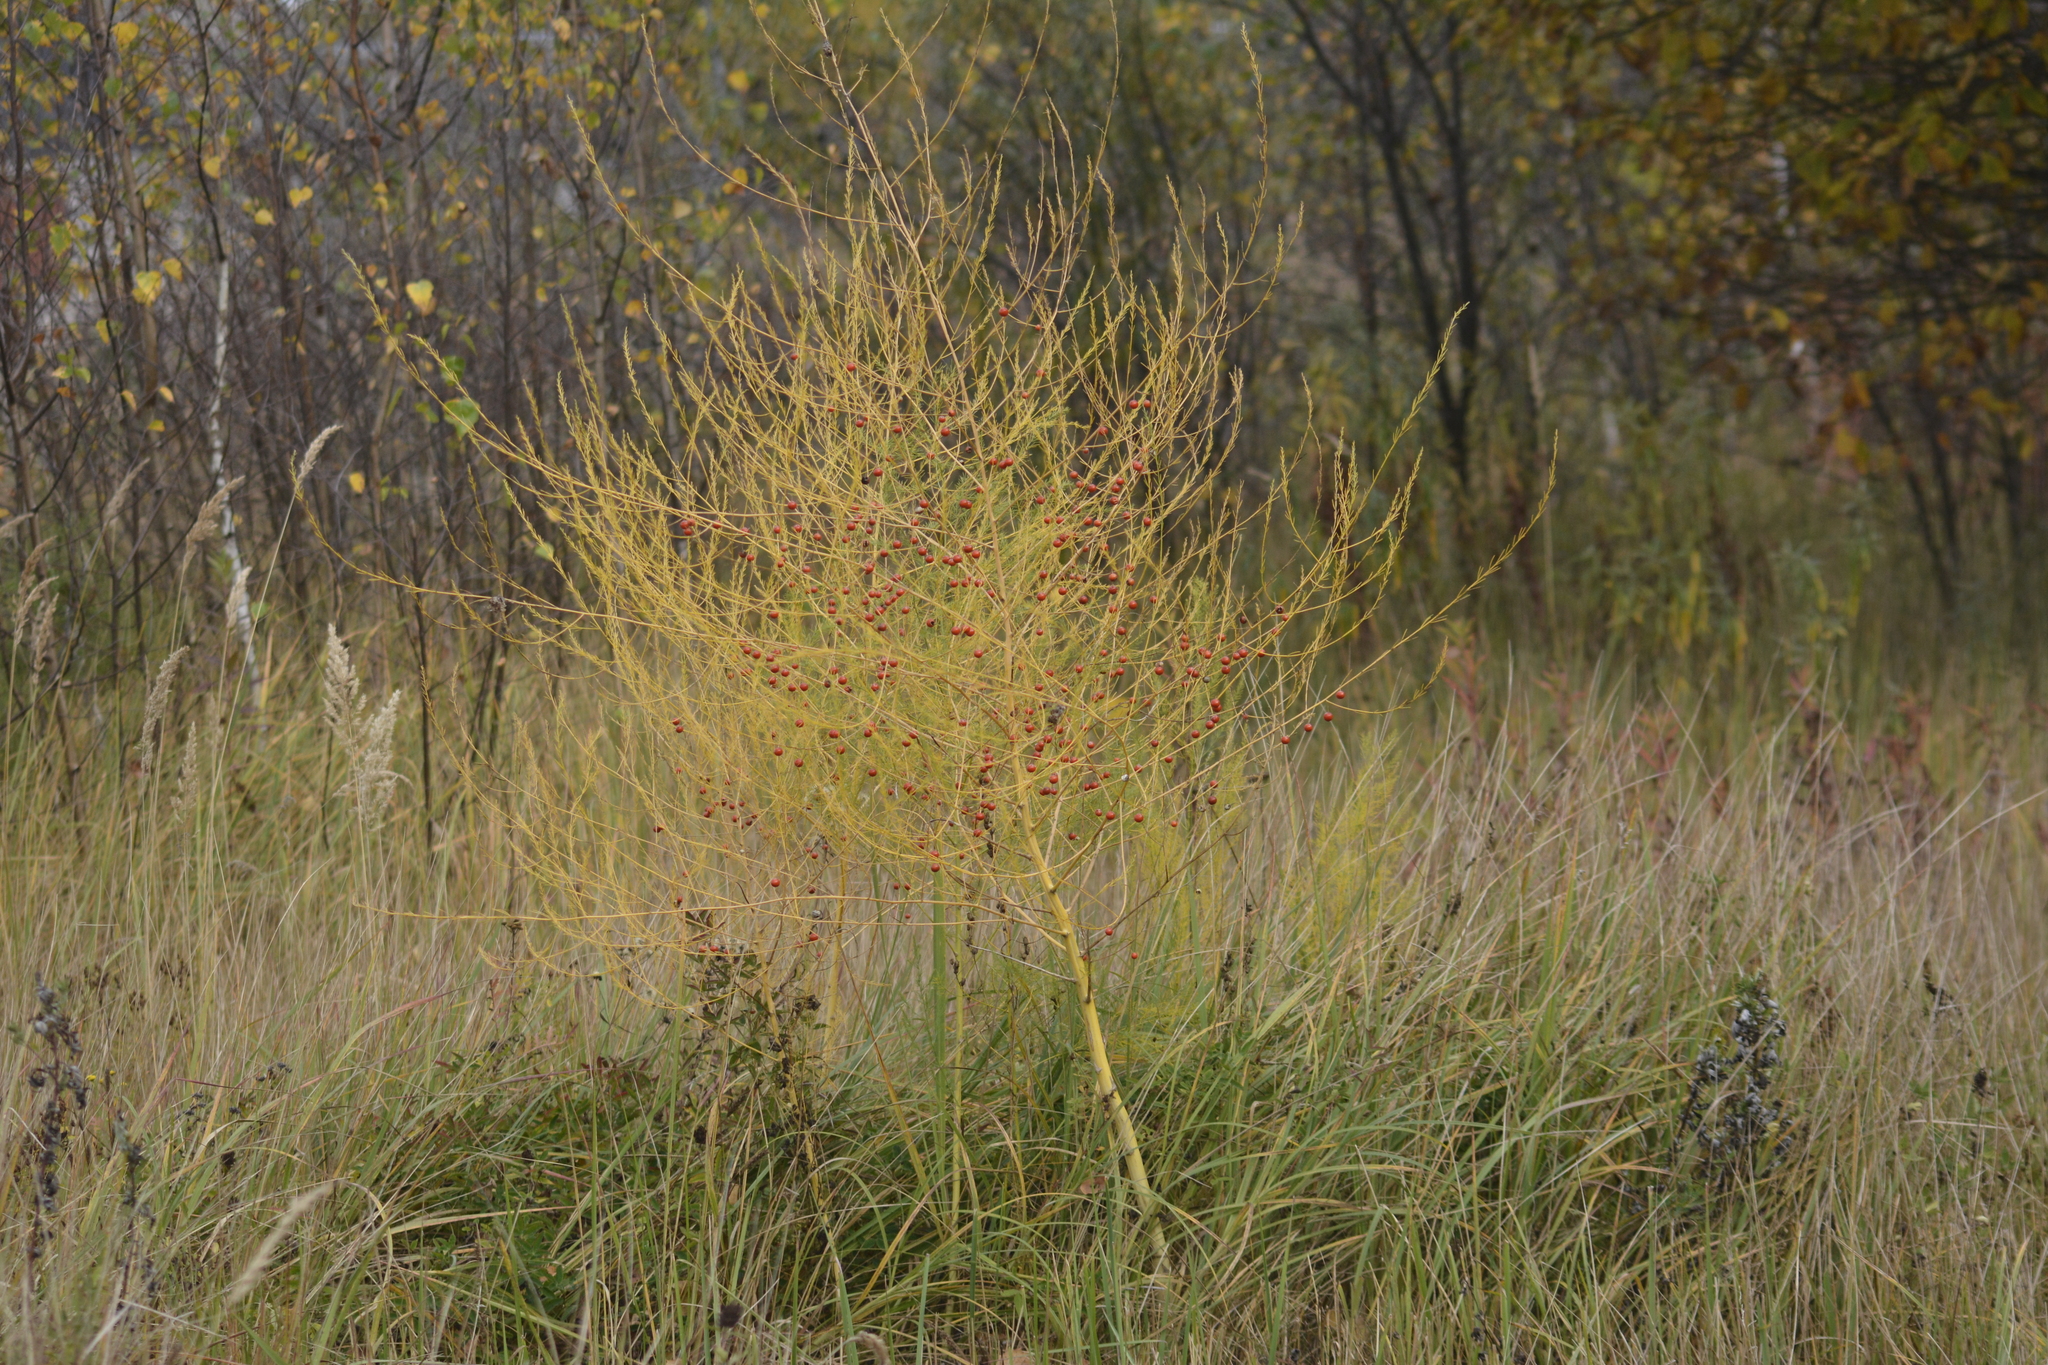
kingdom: Plantae
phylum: Tracheophyta
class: Liliopsida
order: Asparagales
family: Asparagaceae
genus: Asparagus
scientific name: Asparagus officinalis
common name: Garden asparagus
